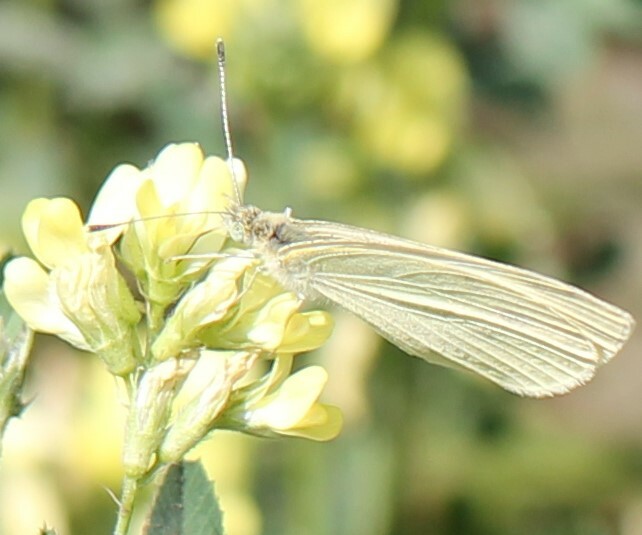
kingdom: Animalia
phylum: Arthropoda
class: Insecta
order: Lepidoptera
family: Pieridae
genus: Pieris
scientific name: Pieris rapae
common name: Small white
